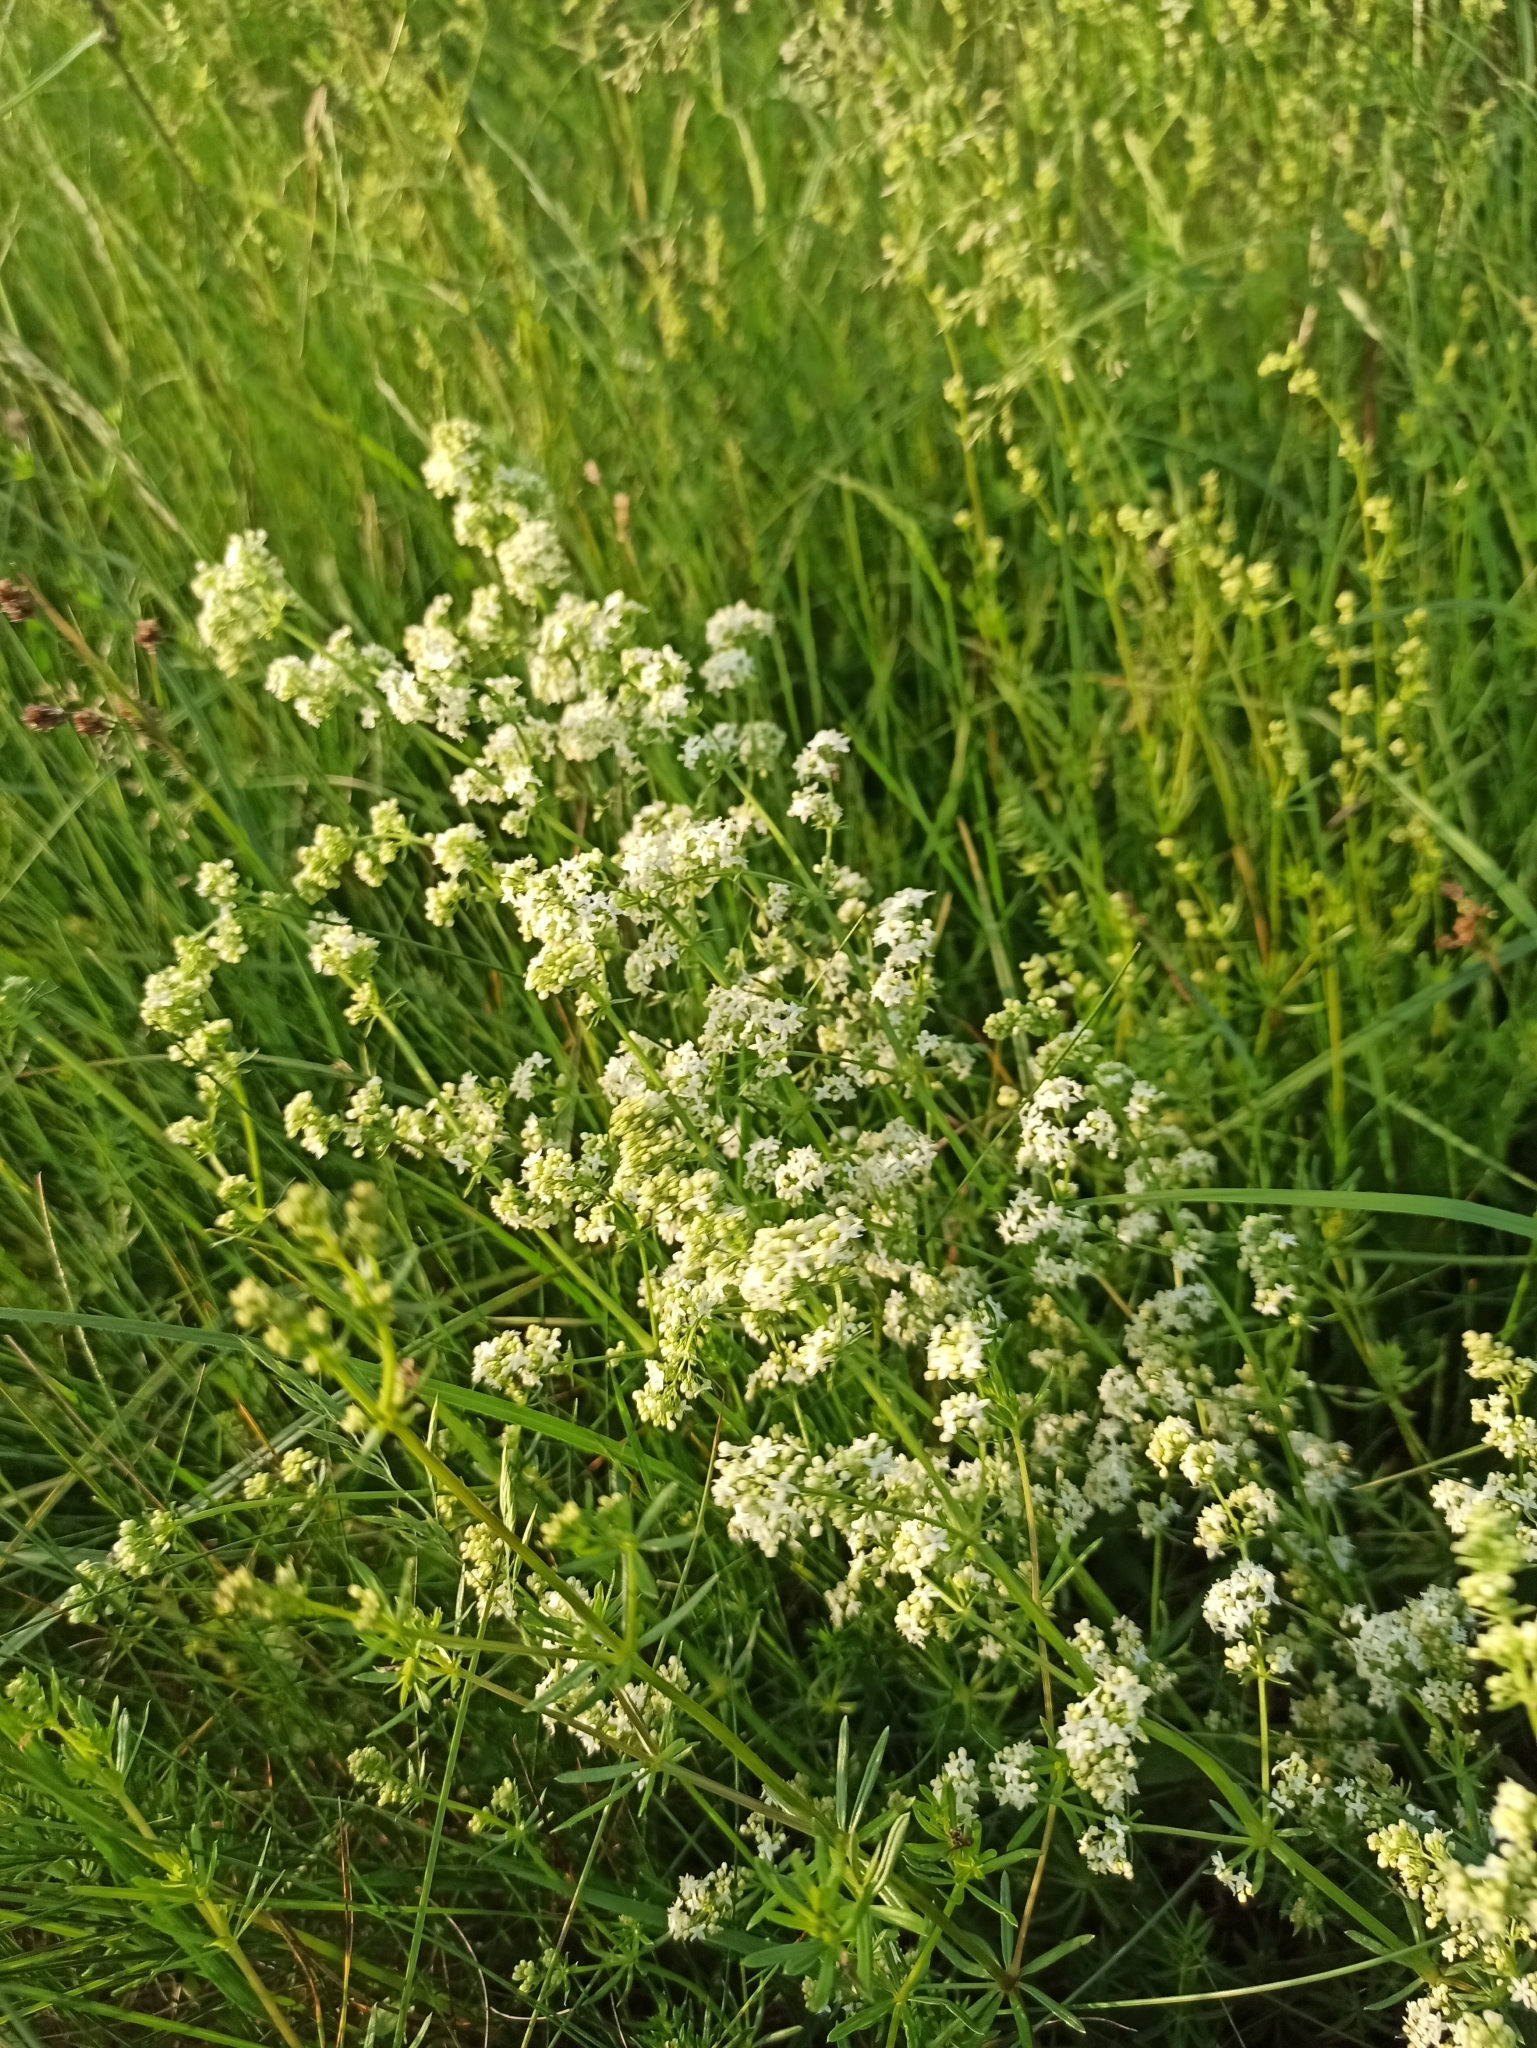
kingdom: Plantae
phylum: Tracheophyta
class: Magnoliopsida
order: Gentianales
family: Rubiaceae
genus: Galium
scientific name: Galium mollugo
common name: Hedge bedstraw
